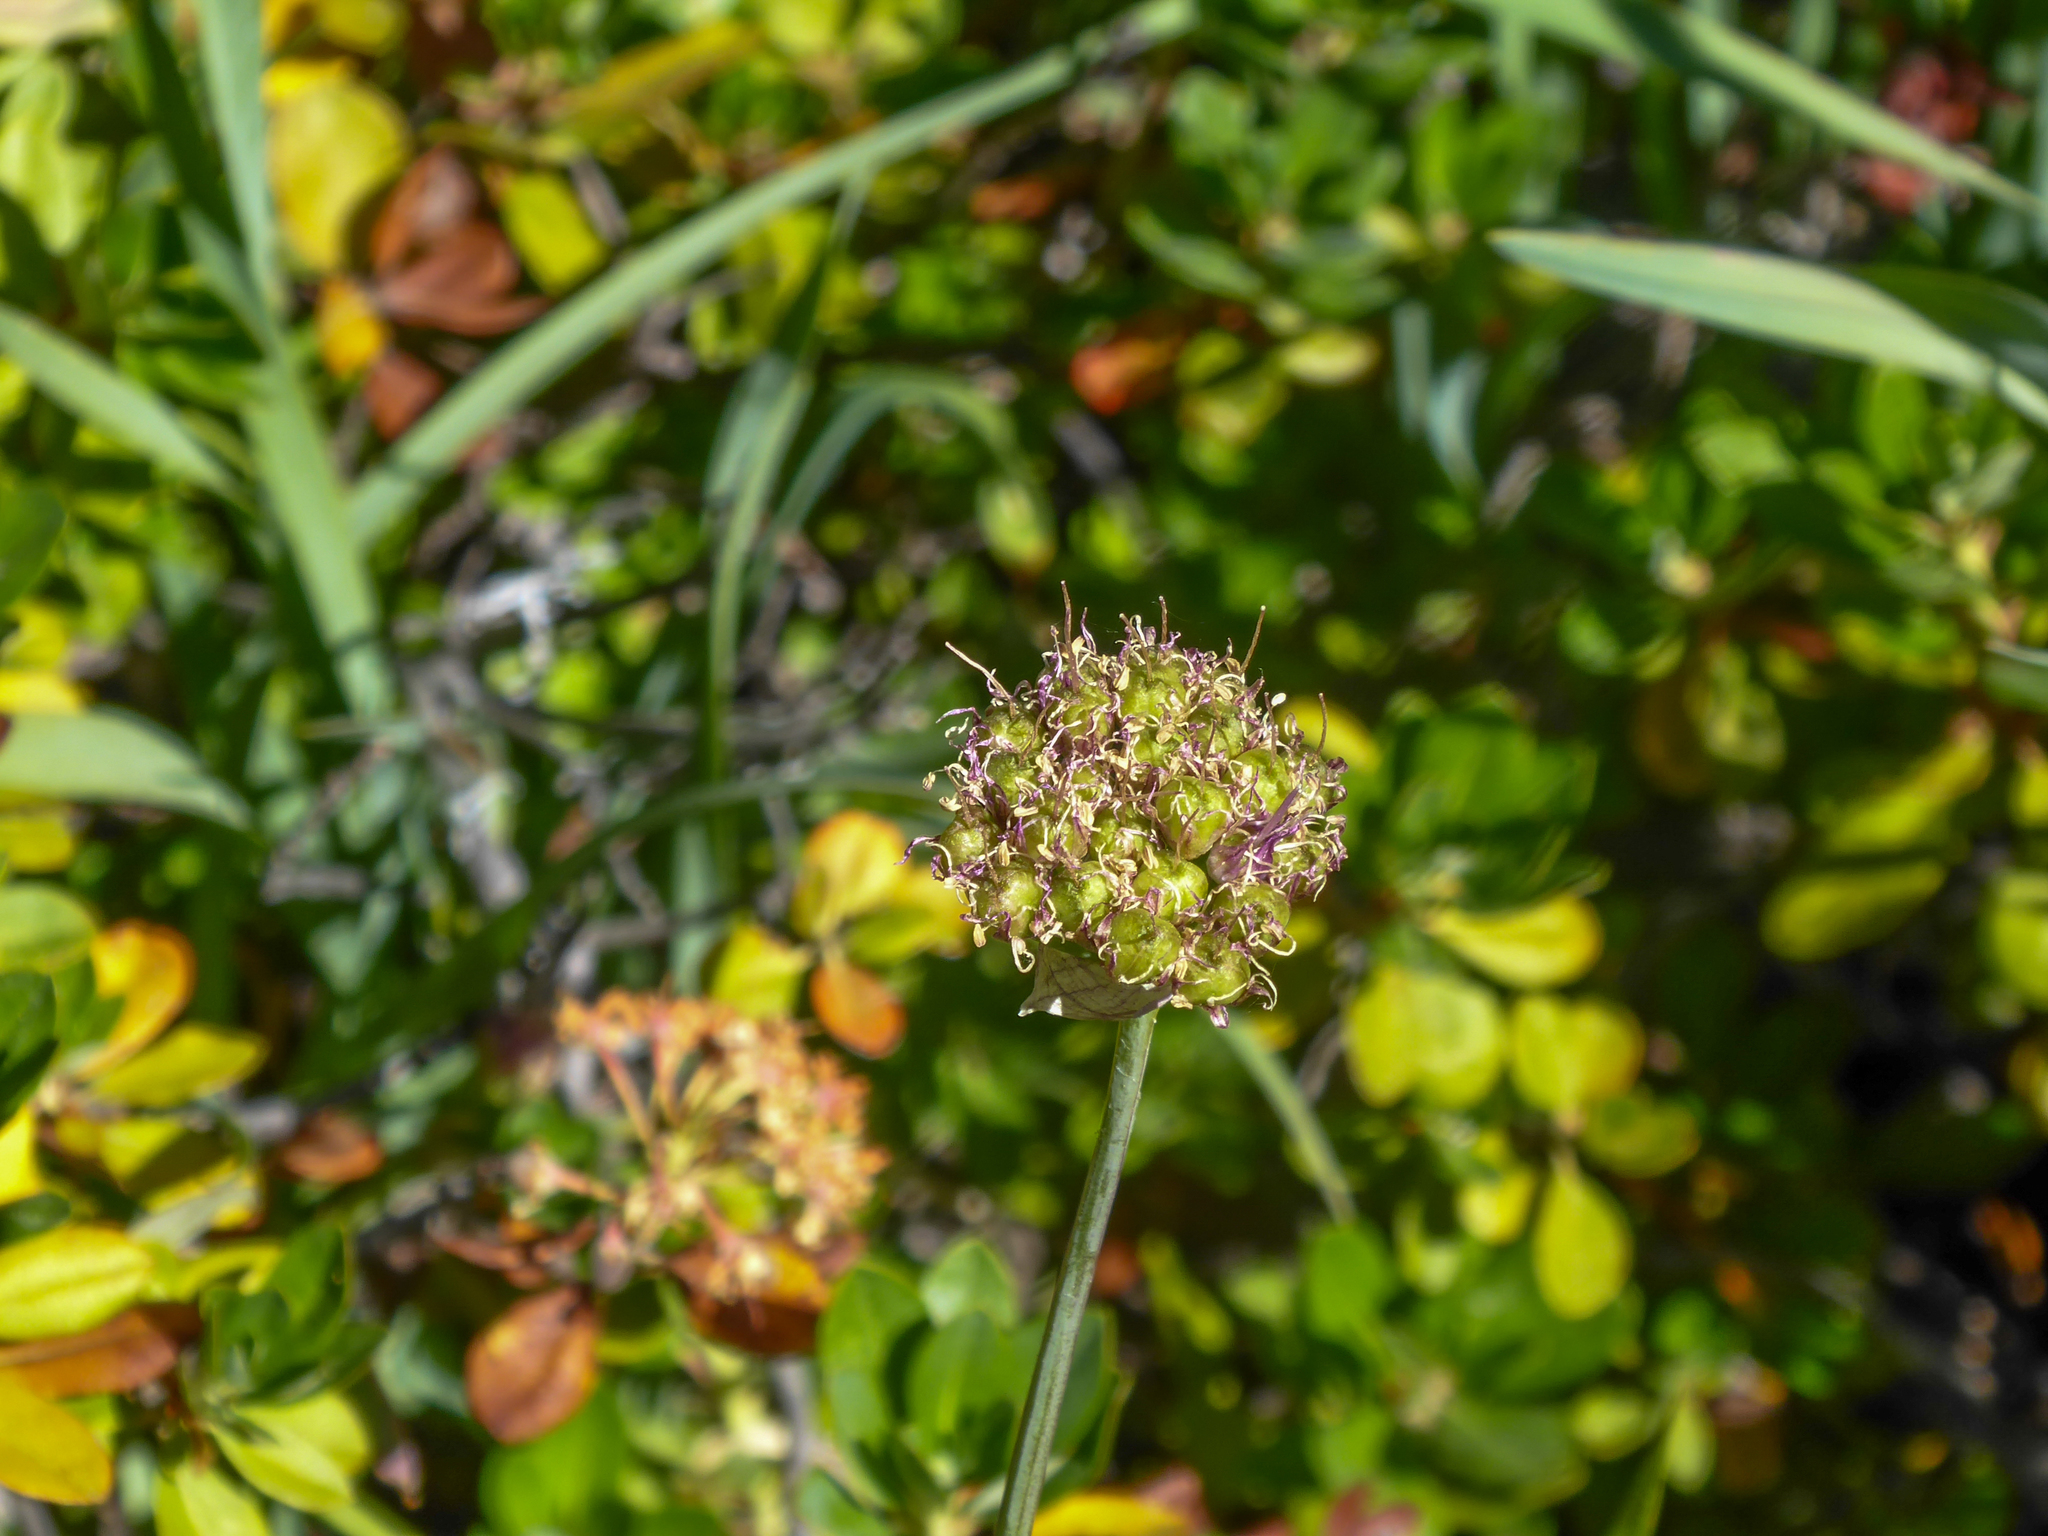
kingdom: Plantae
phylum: Tracheophyta
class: Liliopsida
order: Asparagales
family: Amaryllidaceae
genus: Allium
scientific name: Allium validum
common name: Pacific mountain onion
